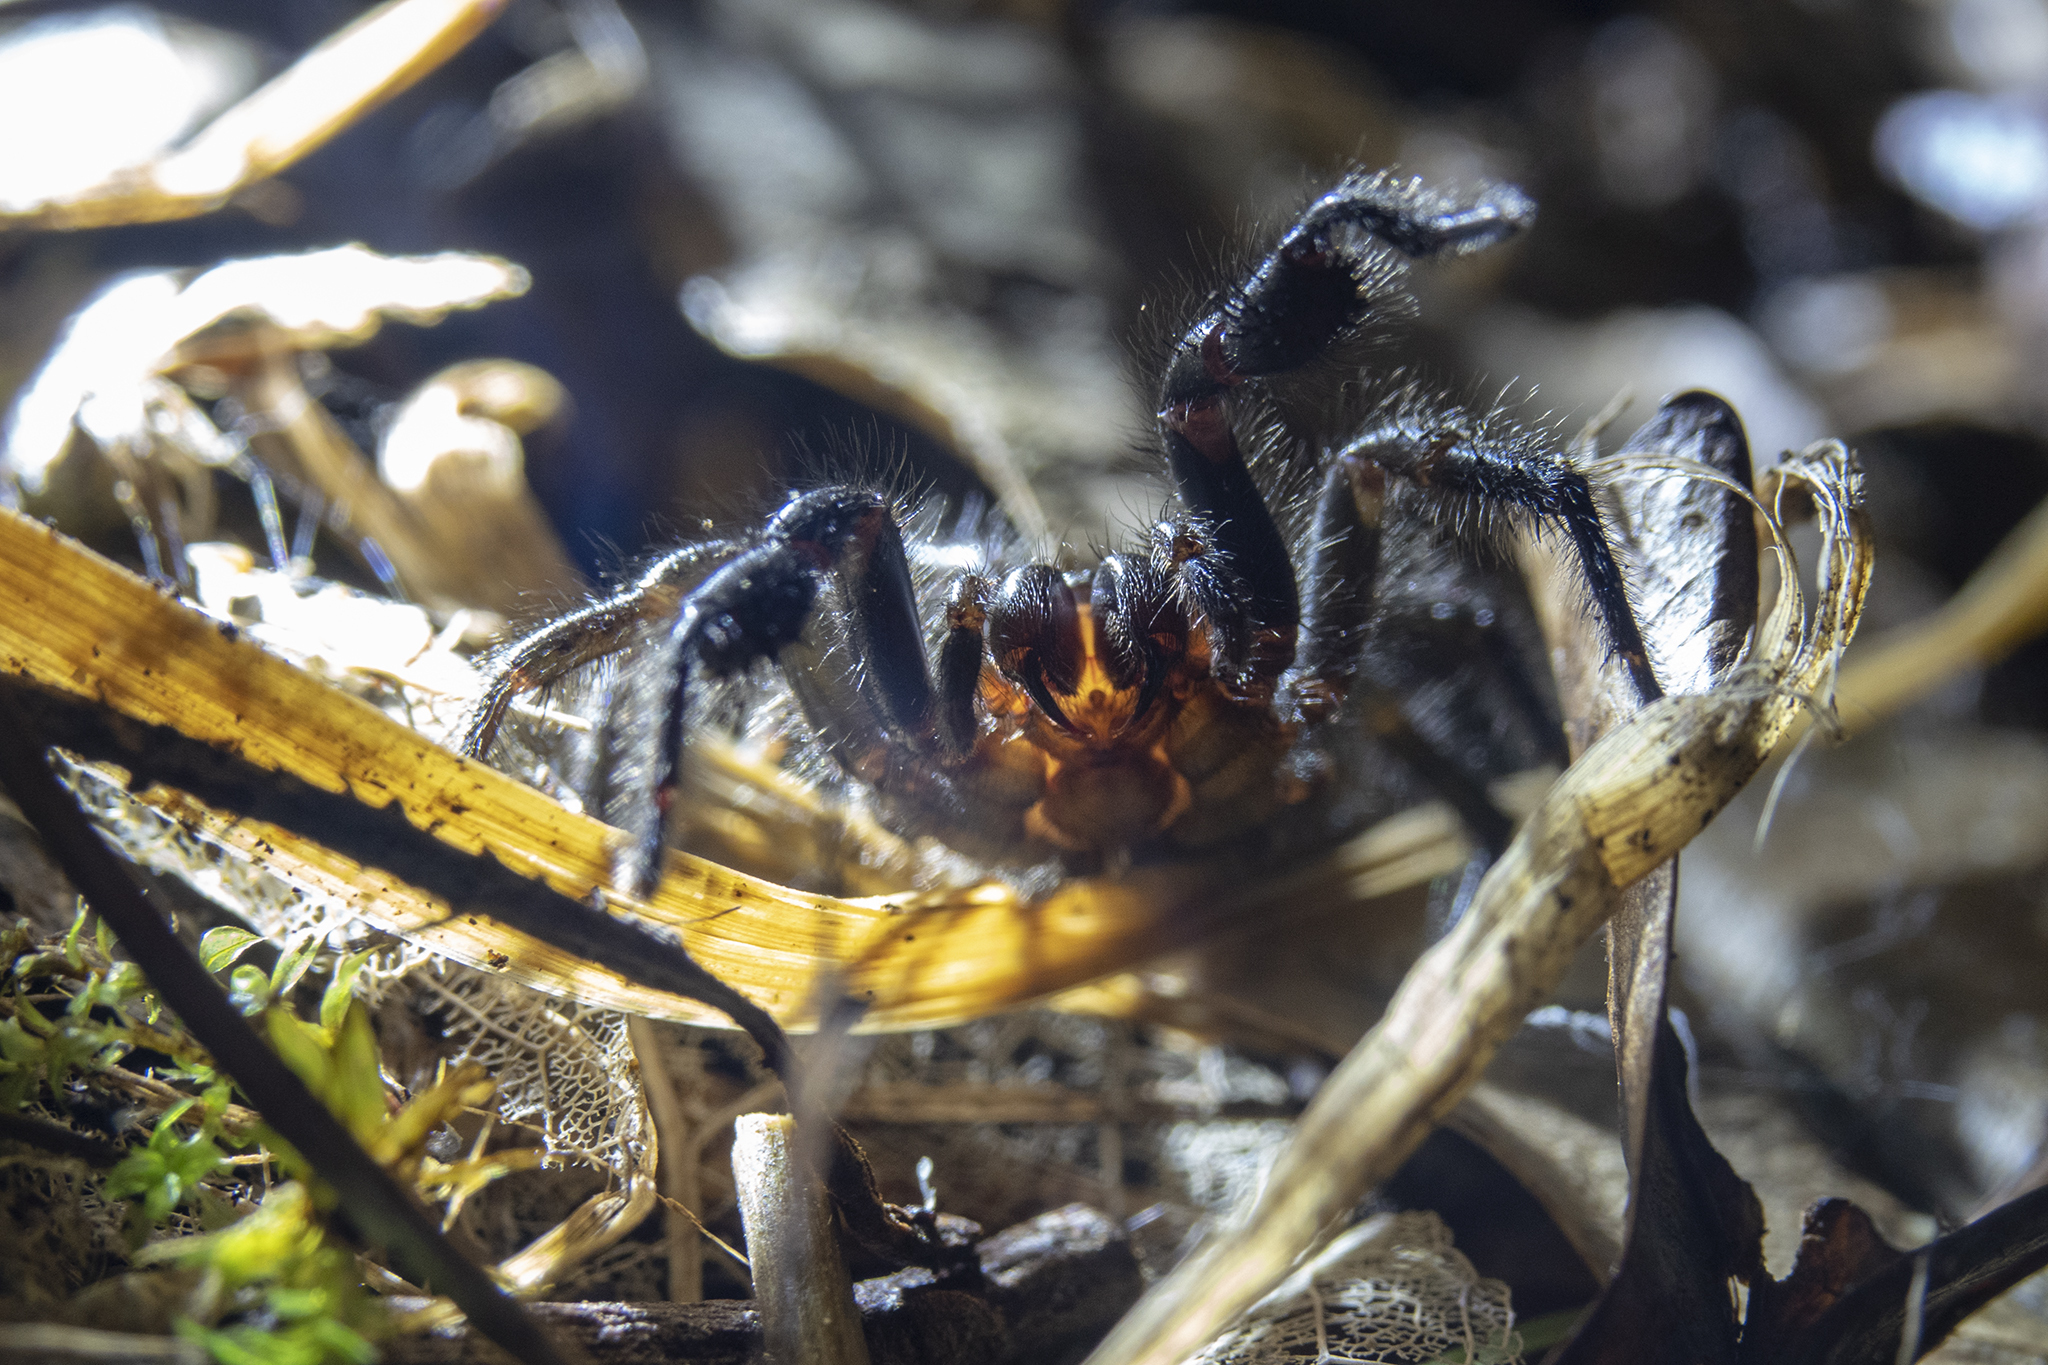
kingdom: Animalia
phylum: Arthropoda
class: Arachnida
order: Araneae
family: Porrhothelidae
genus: Porrhothele
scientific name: Porrhothele antipodiana
